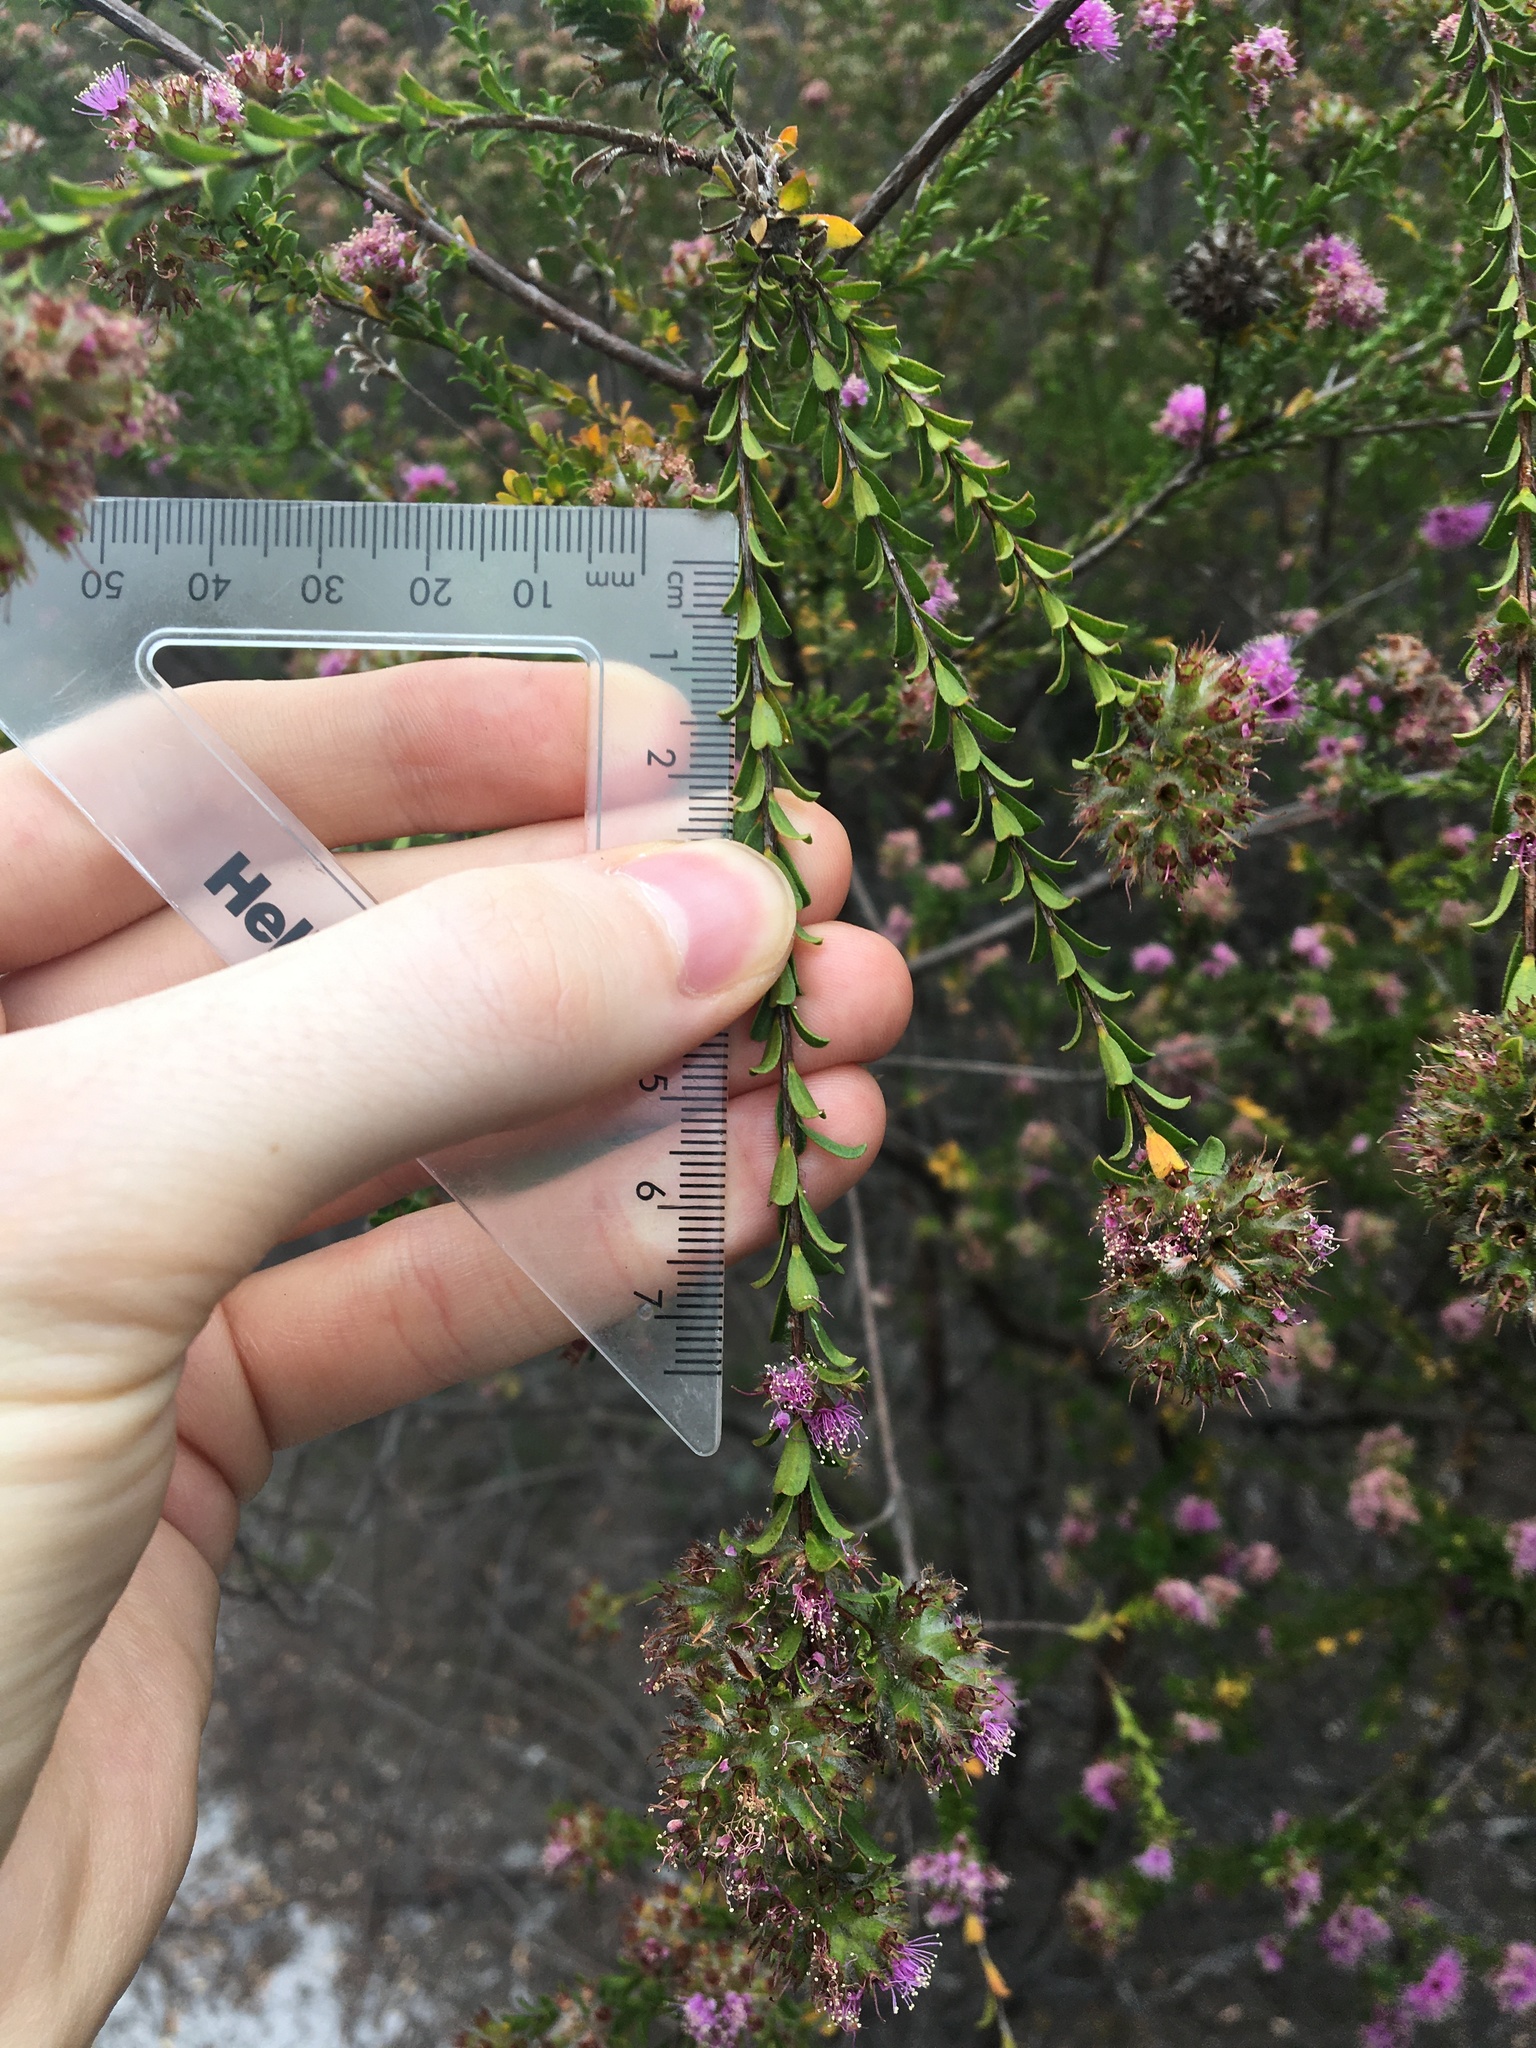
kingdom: Plantae
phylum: Tracheophyta
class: Magnoliopsida
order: Myrtales
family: Myrtaceae
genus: Kunzea
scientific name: Kunzea capitata
